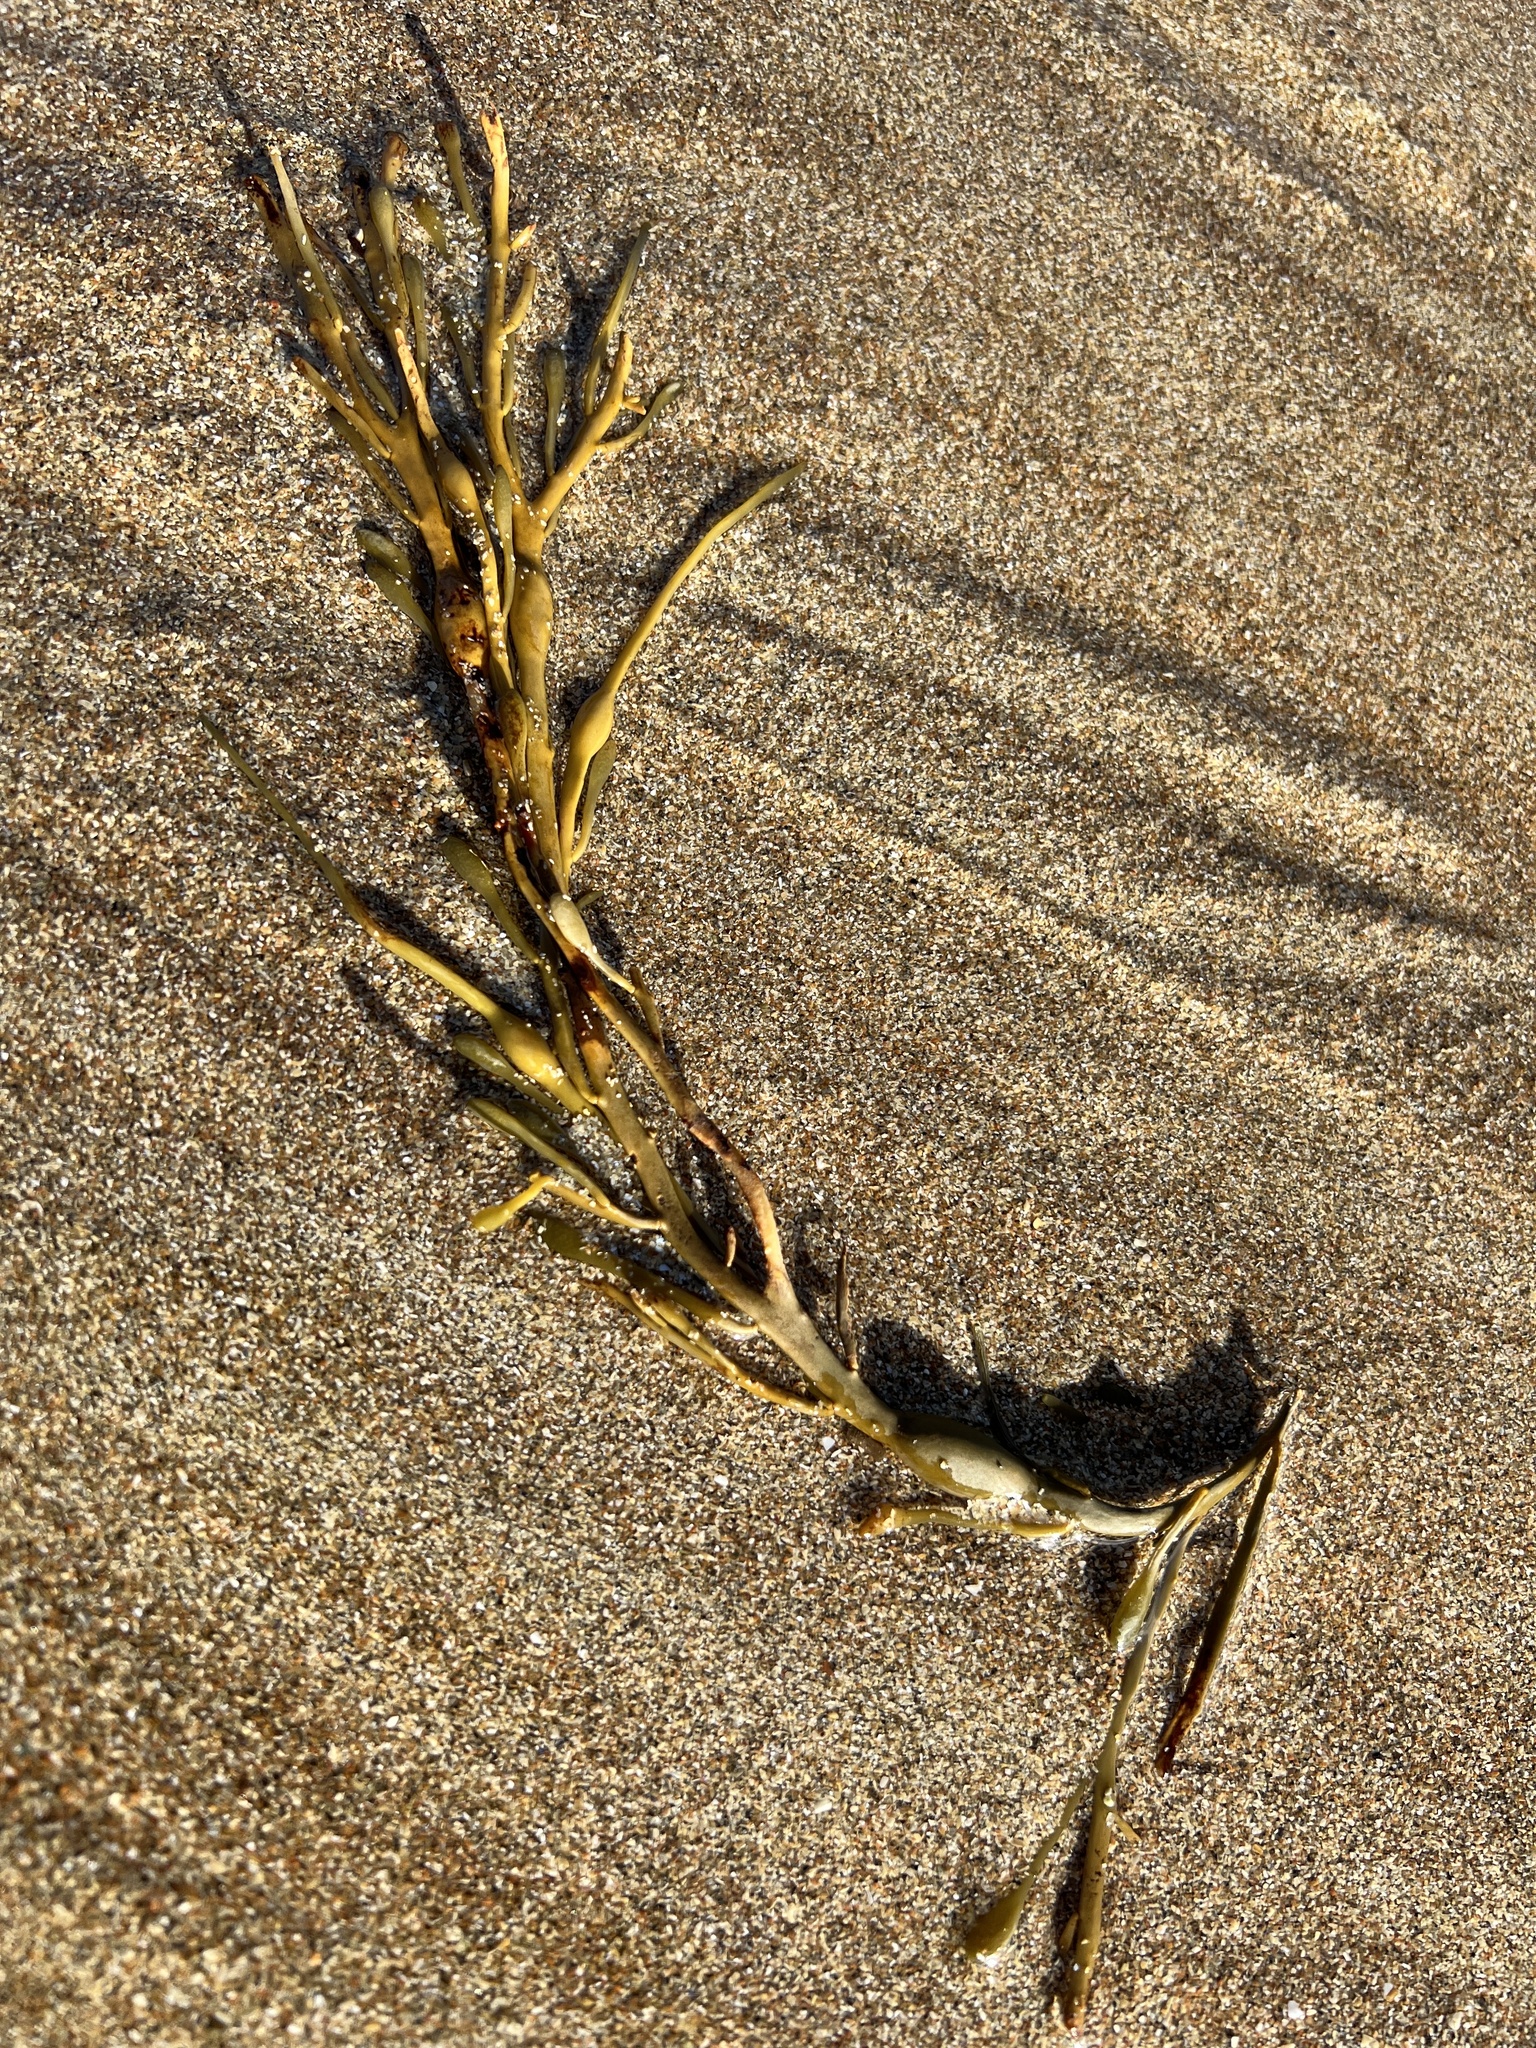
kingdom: Chromista
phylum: Ochrophyta
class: Phaeophyceae
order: Fucales
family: Fucaceae
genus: Ascophyllum
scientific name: Ascophyllum nodosum
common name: Knotted wrack
